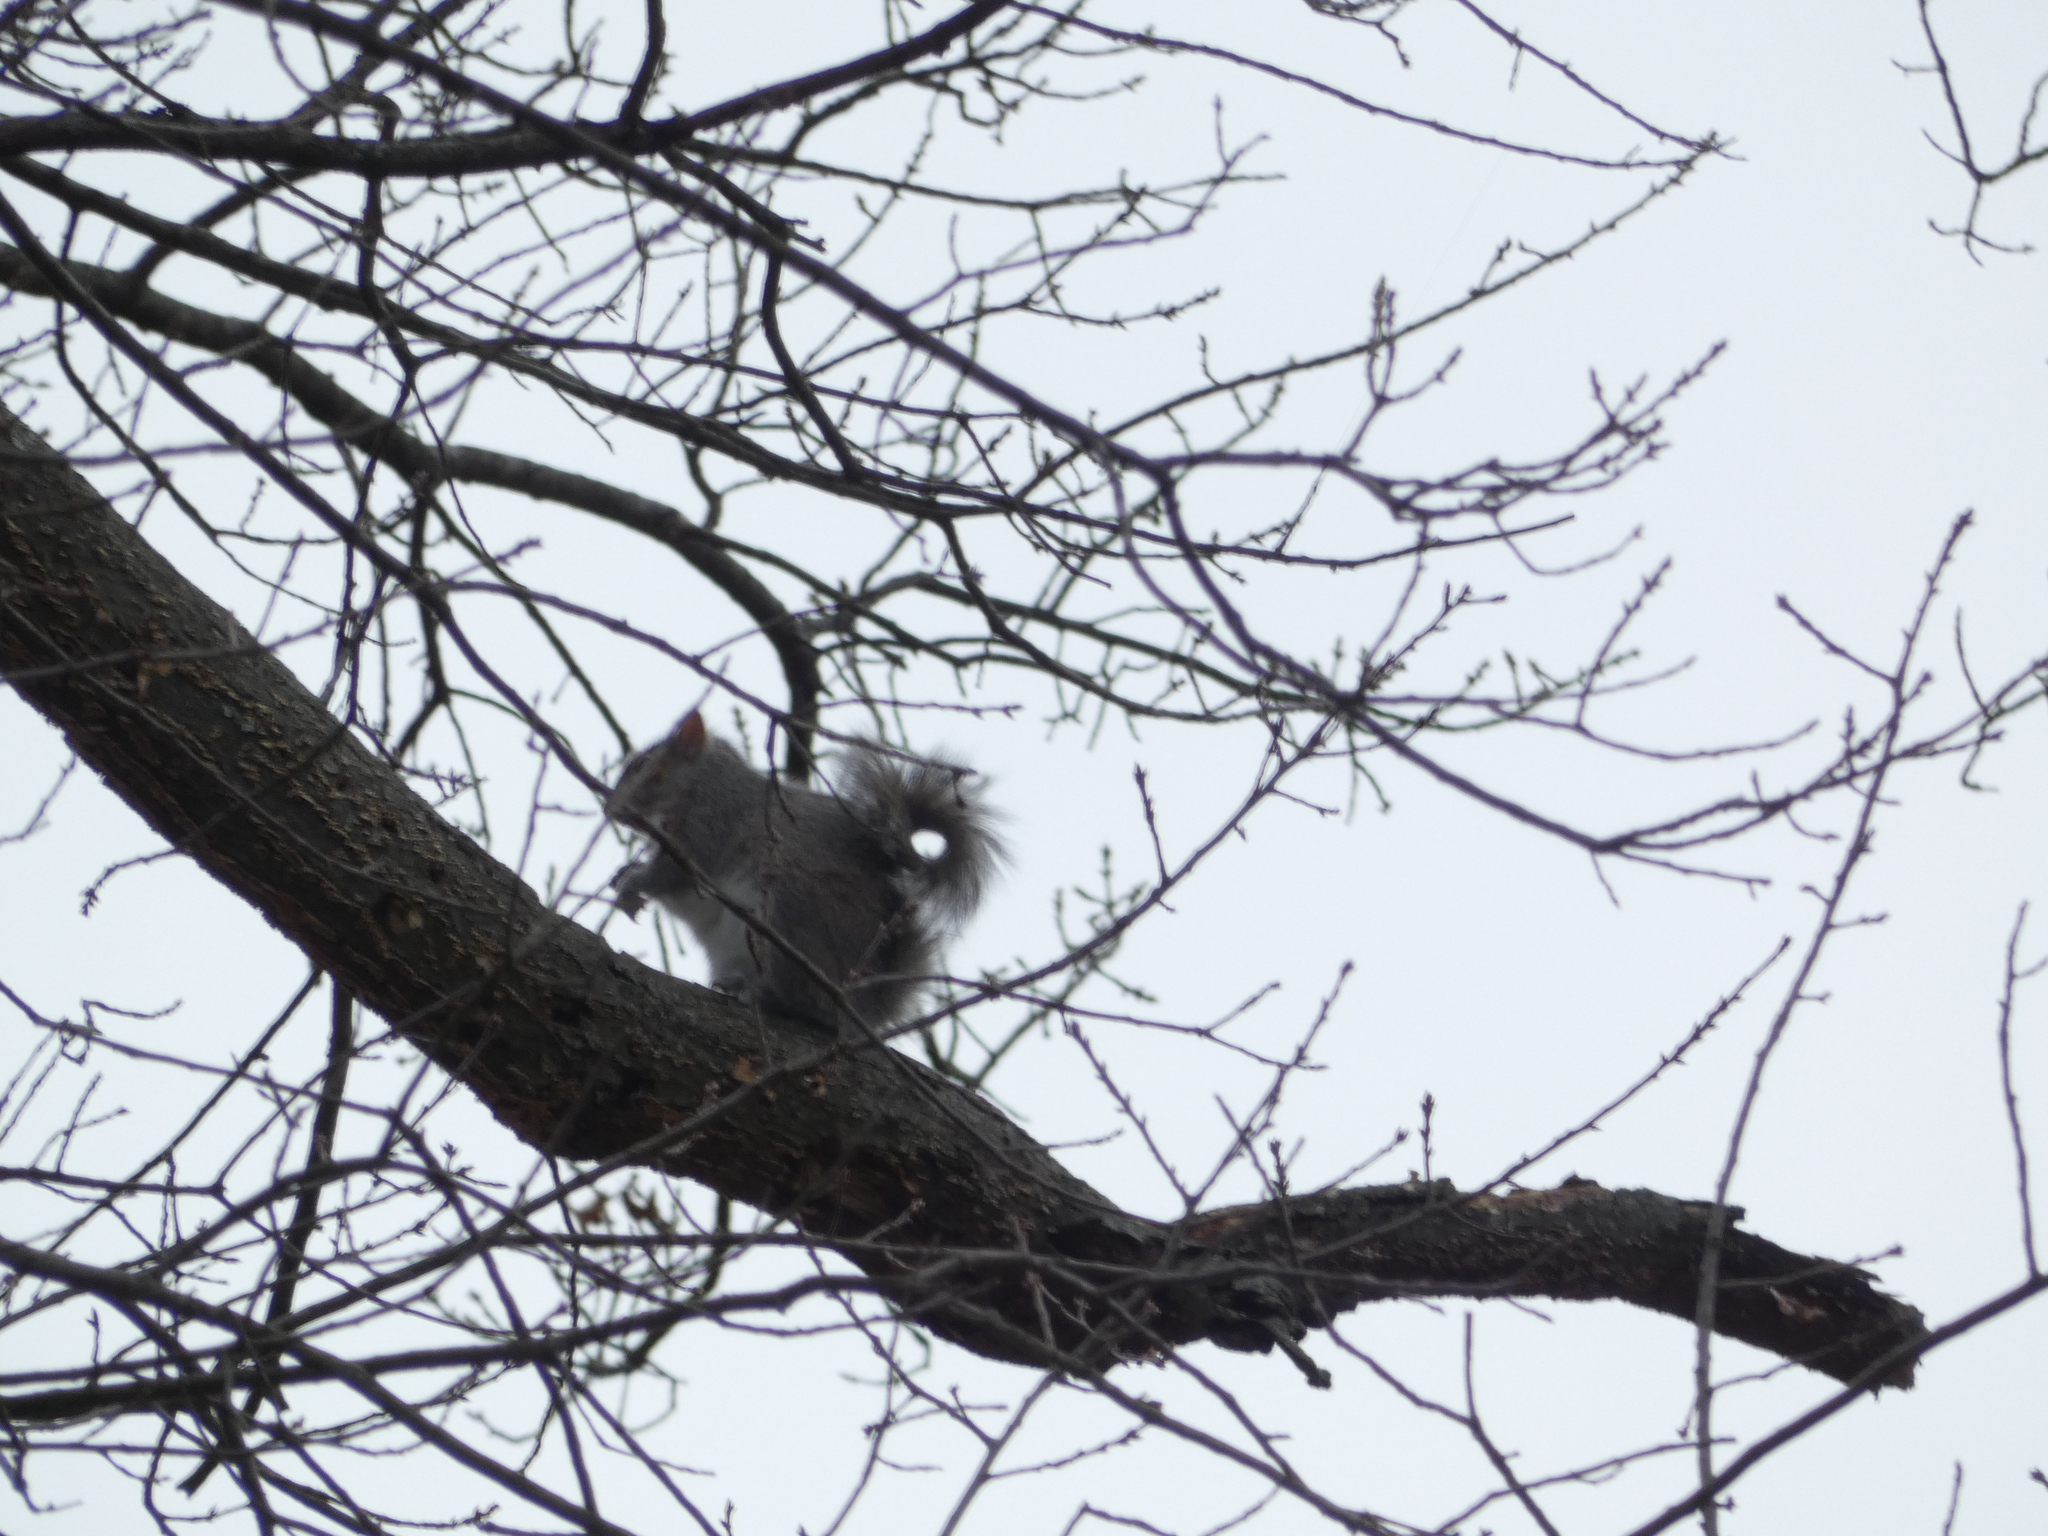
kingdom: Animalia
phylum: Chordata
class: Mammalia
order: Rodentia
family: Sciuridae
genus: Sciurus
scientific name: Sciurus carolinensis
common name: Eastern gray squirrel
